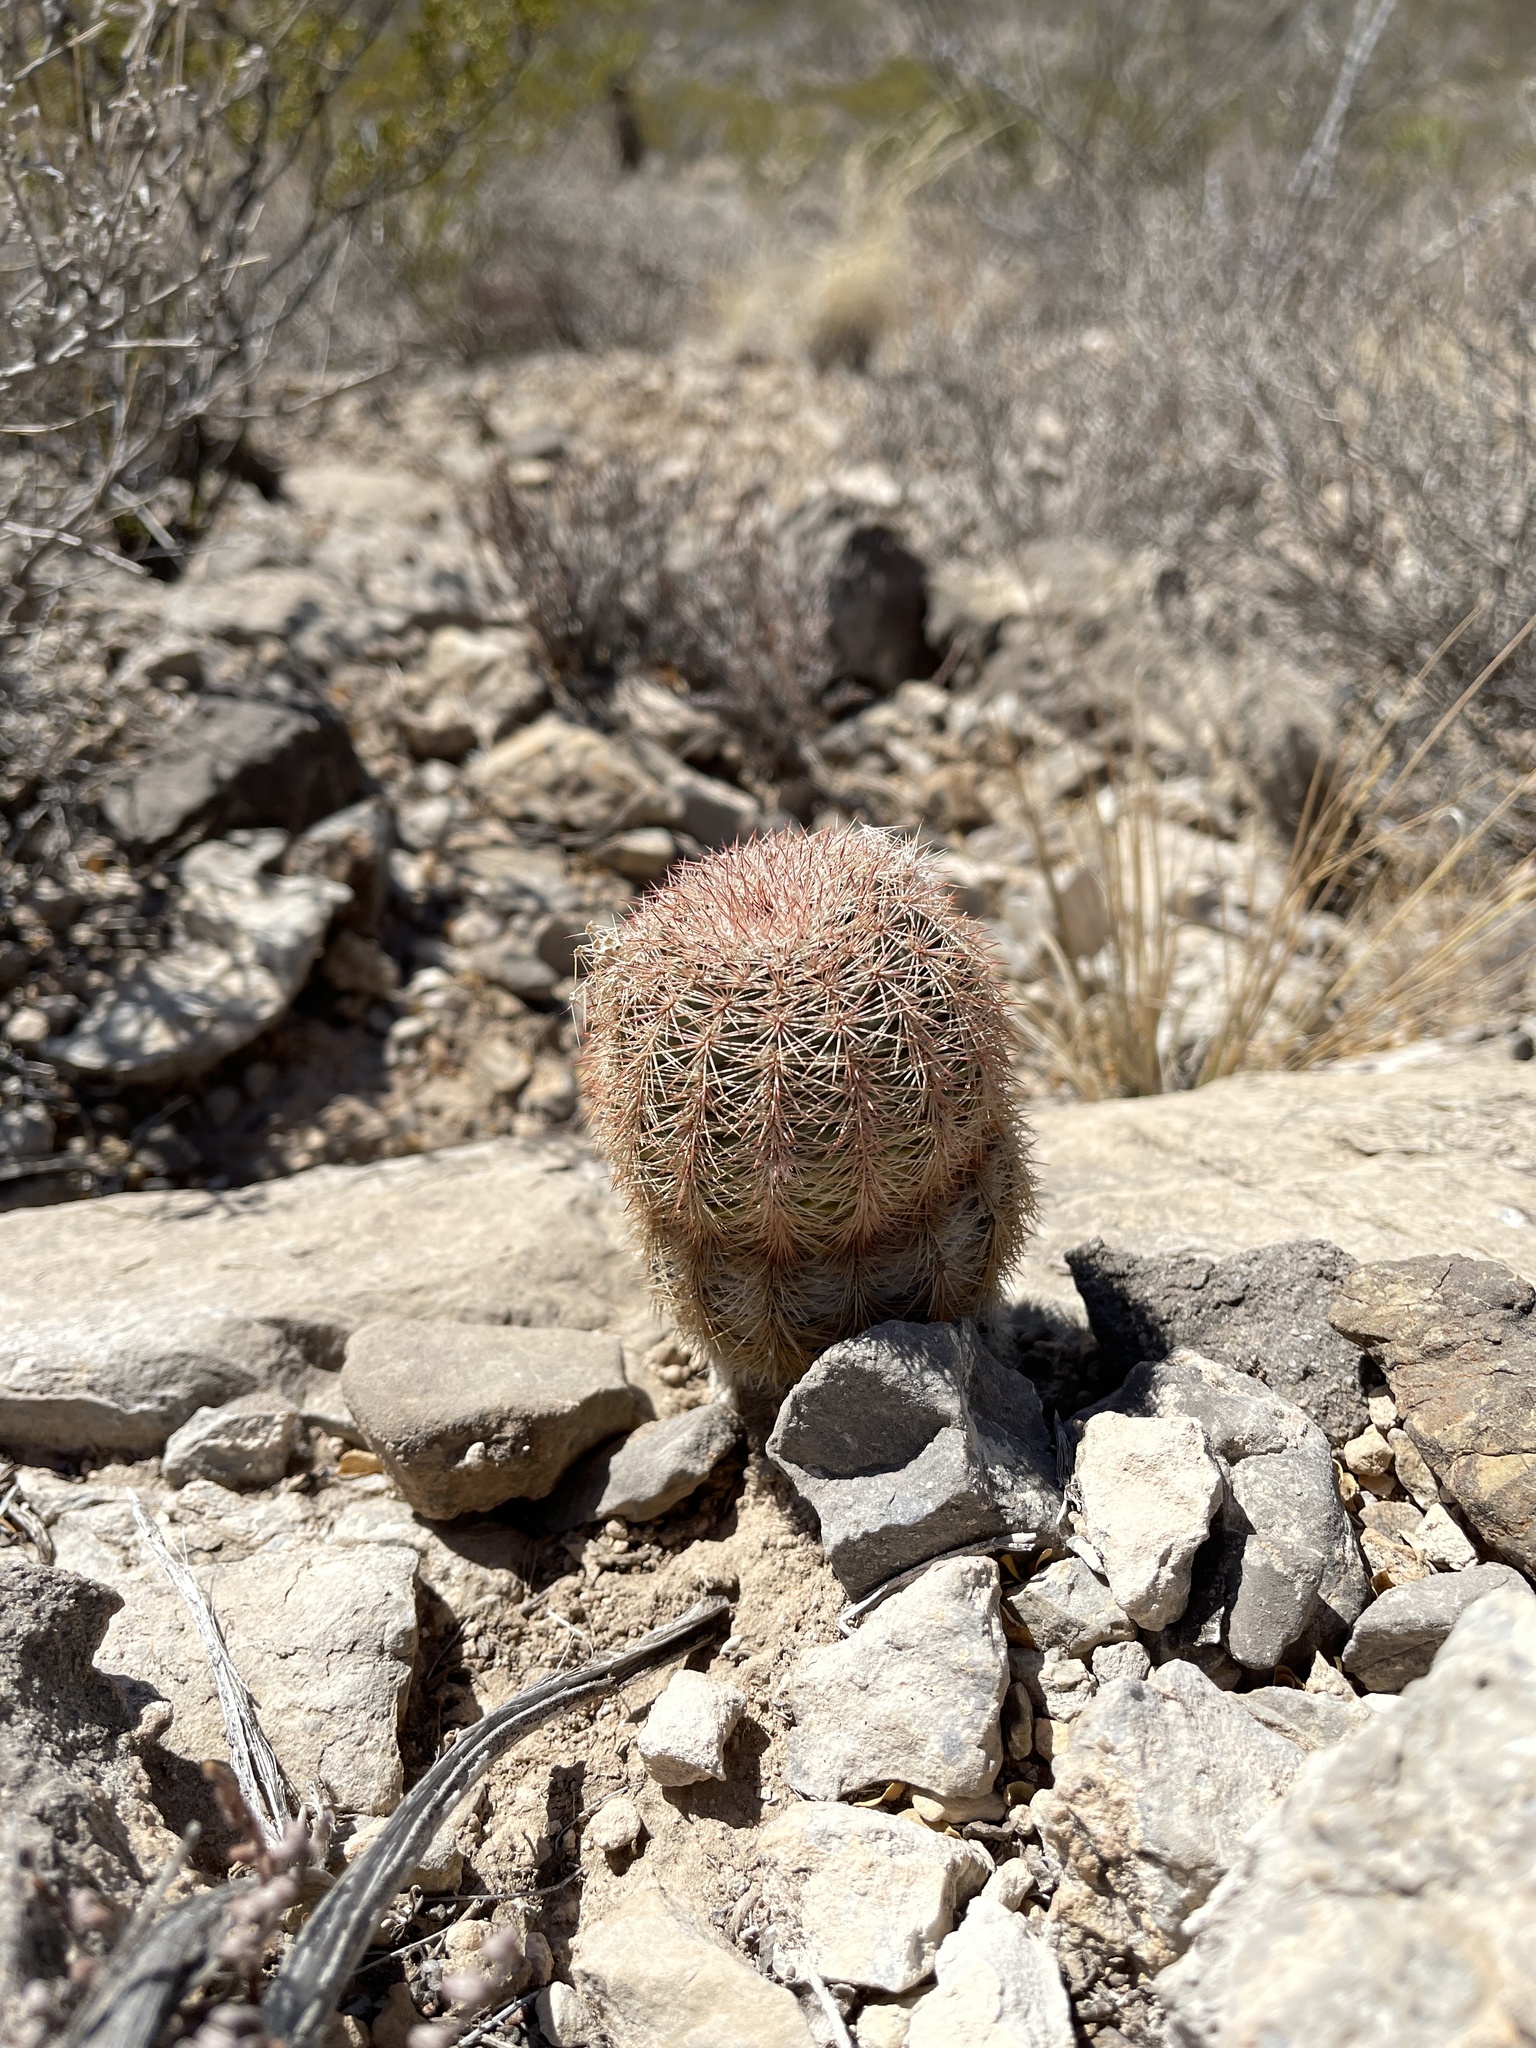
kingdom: Plantae
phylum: Tracheophyta
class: Magnoliopsida
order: Caryophyllales
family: Cactaceae
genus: Echinocereus
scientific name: Echinocereus dasyacanthus
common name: Spiny hedgehog cactus
